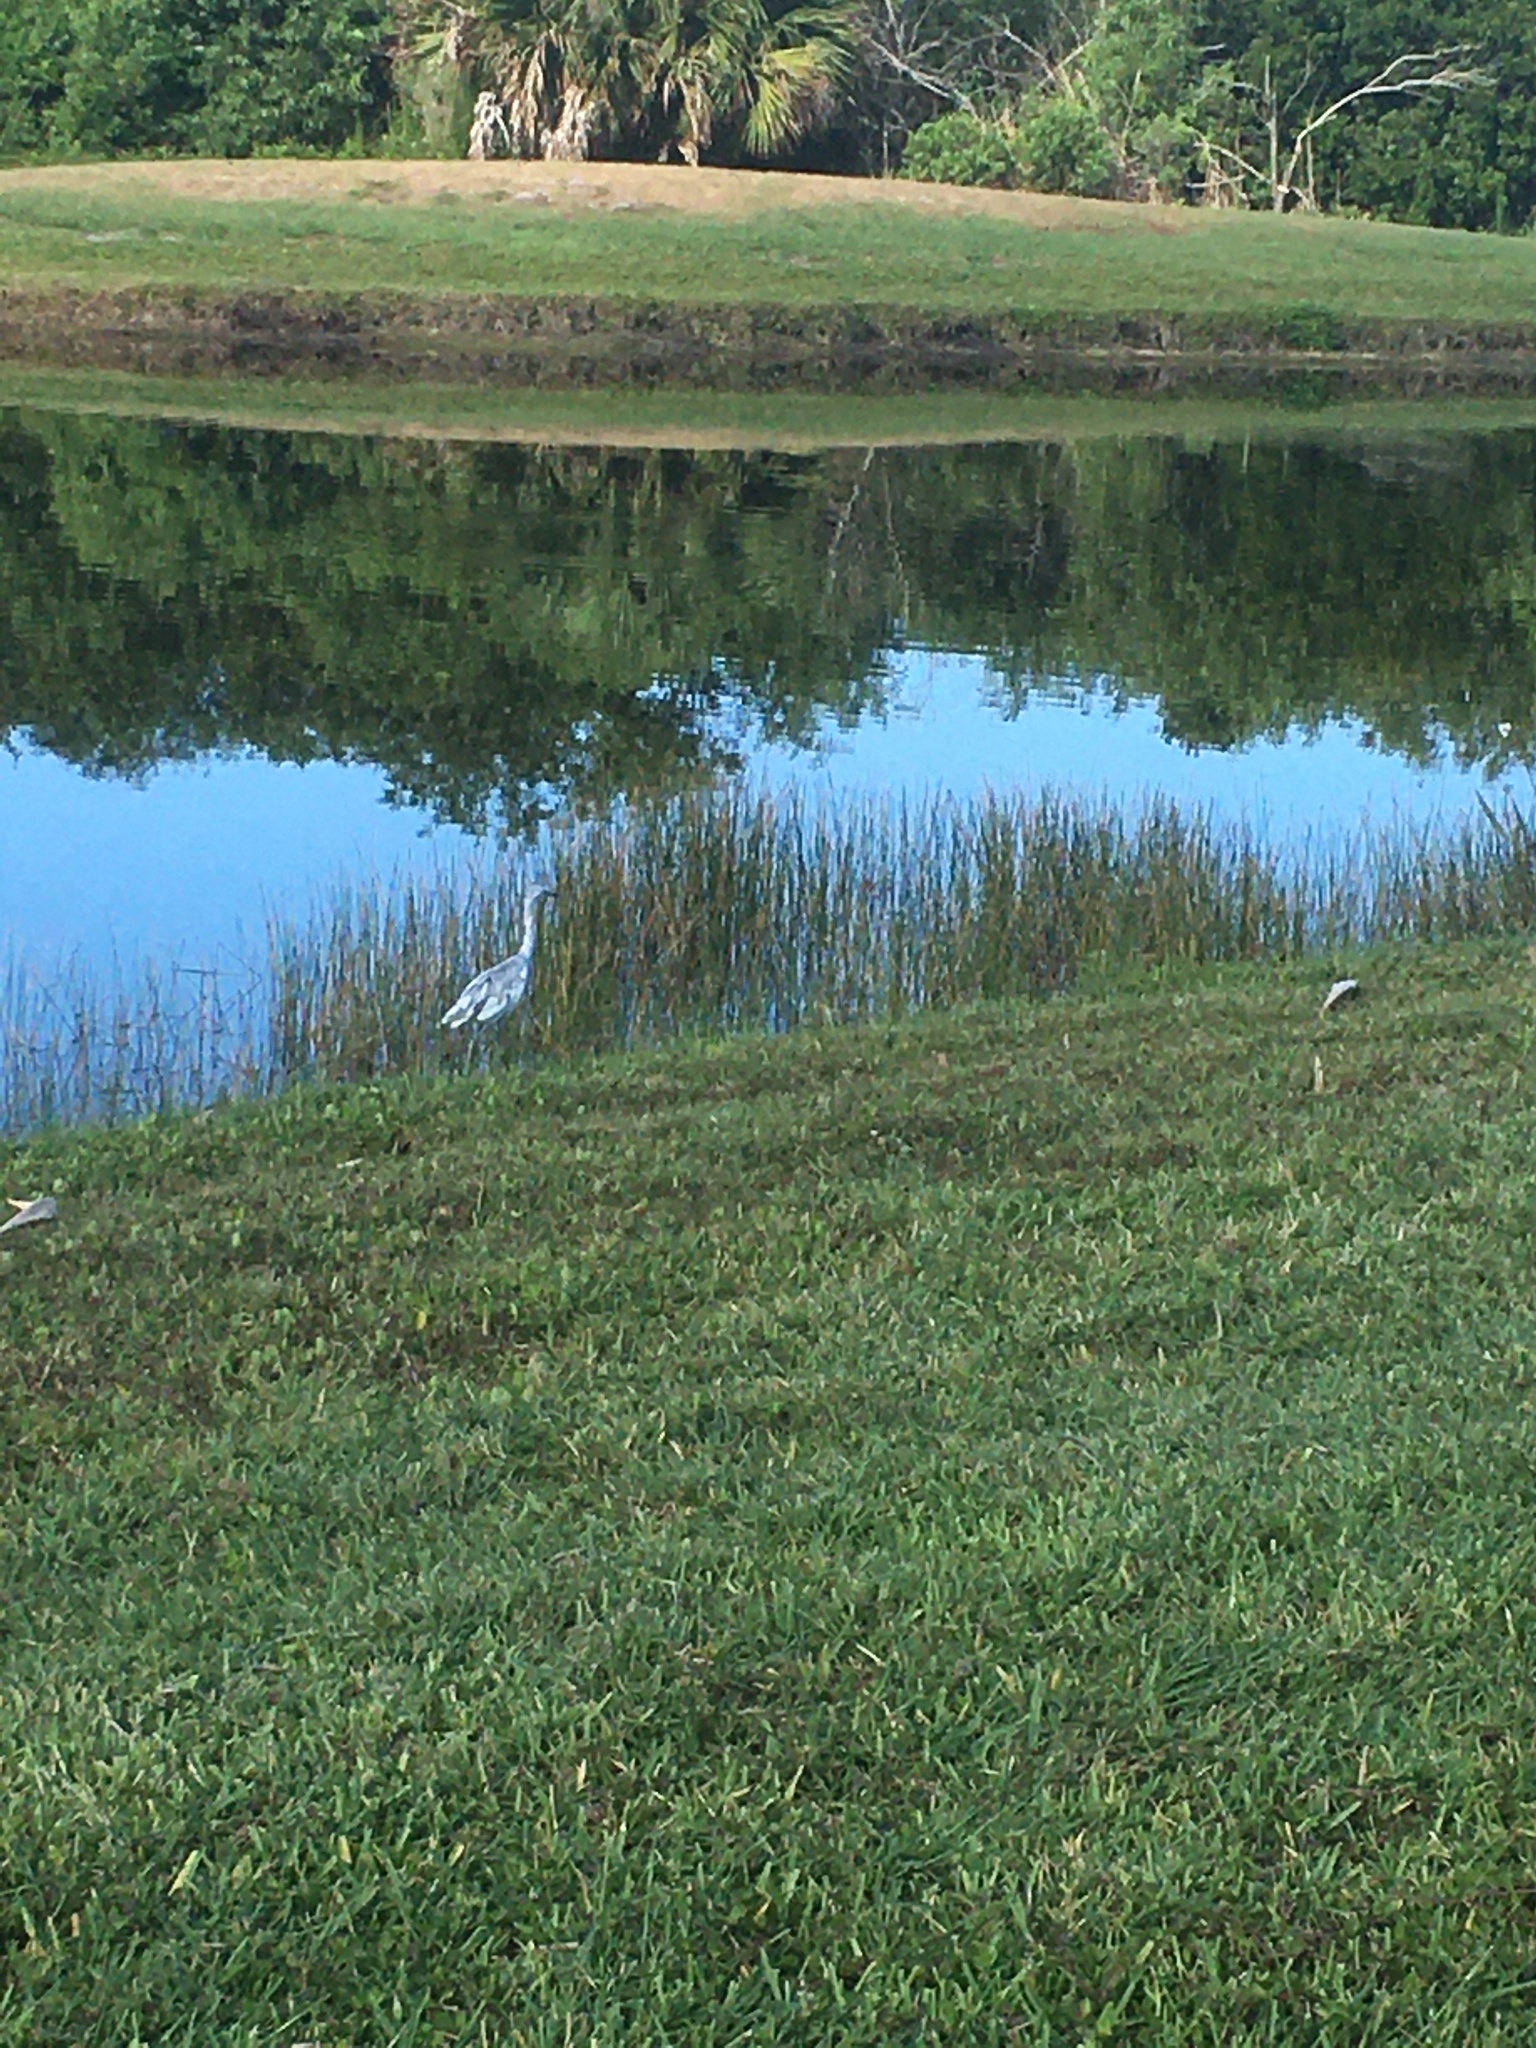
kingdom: Animalia
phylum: Chordata
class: Aves
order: Pelecaniformes
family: Ardeidae
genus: Egretta
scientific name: Egretta caerulea
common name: Little blue heron
